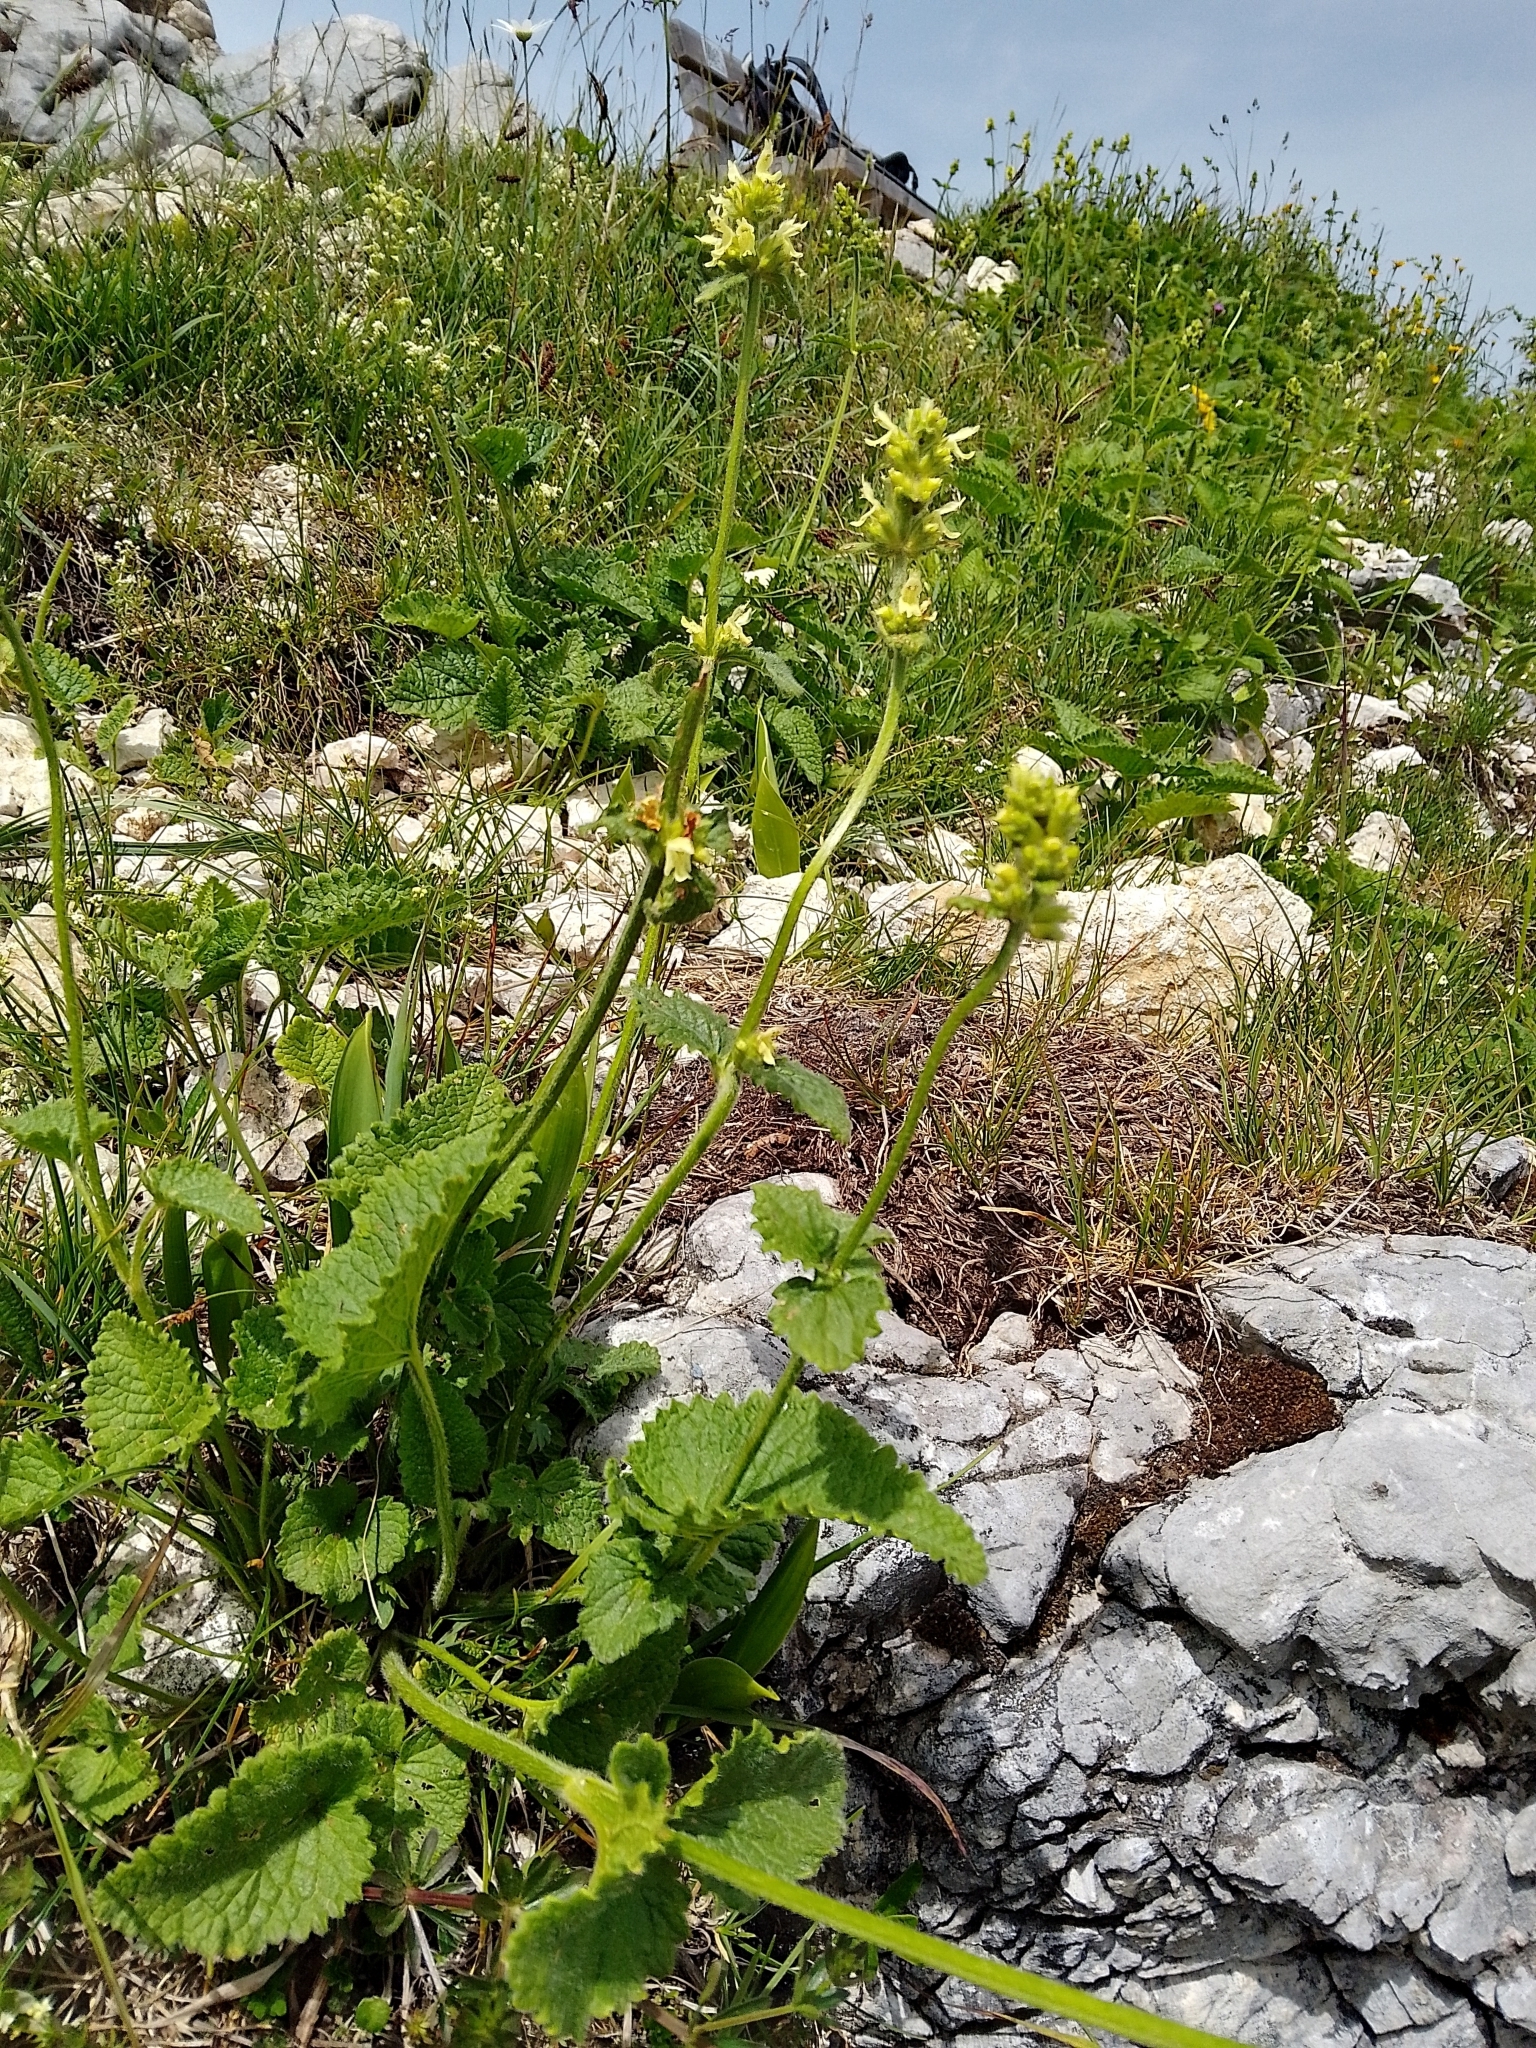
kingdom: Plantae
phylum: Tracheophyta
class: Magnoliopsida
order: Lamiales
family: Lamiaceae
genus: Betonica
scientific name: Betonica alopecuros
